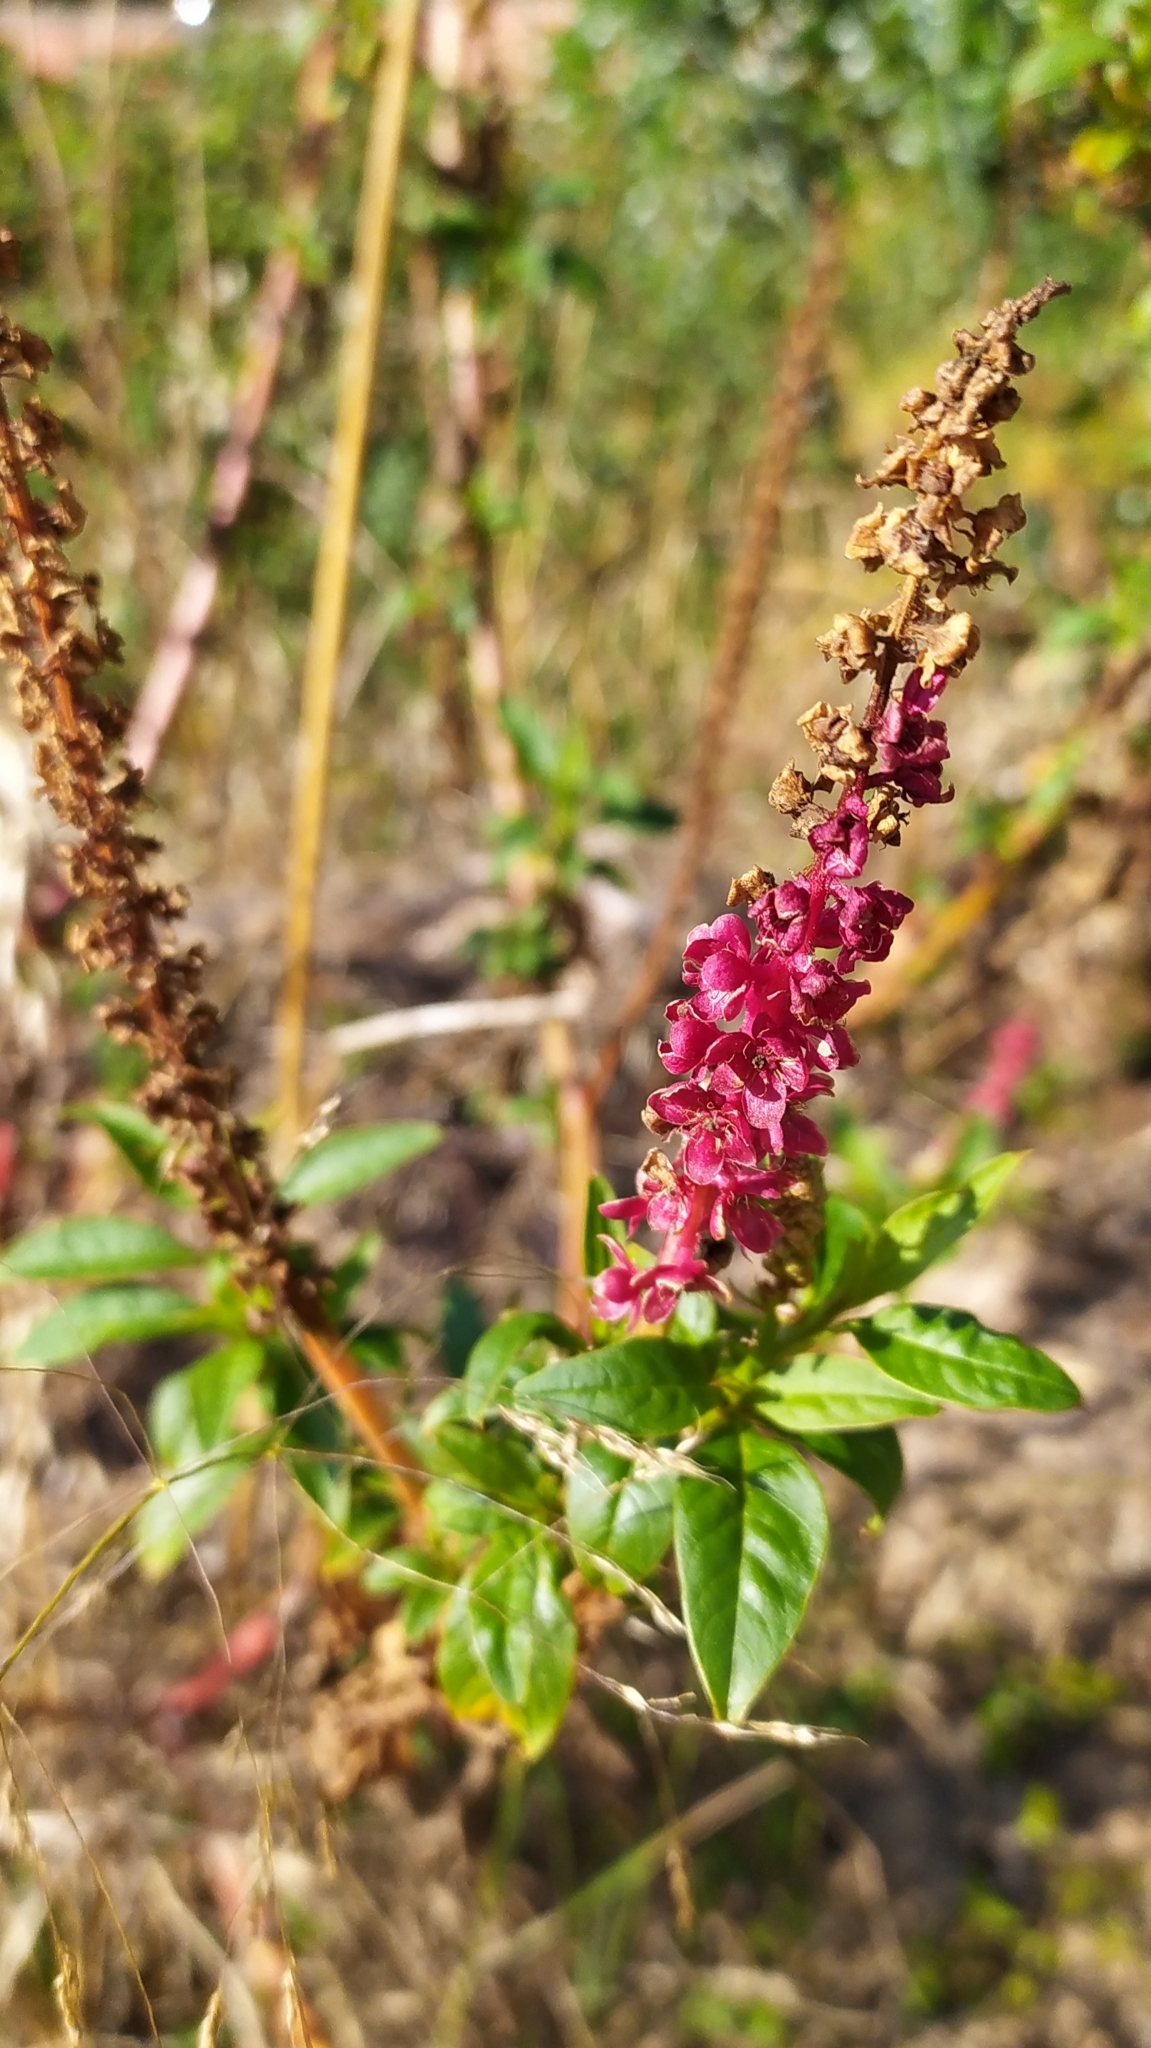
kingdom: Plantae
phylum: Tracheophyta
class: Magnoliopsida
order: Caryophyllales
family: Phytolaccaceae
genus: Phytolacca
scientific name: Phytolacca heterotepala
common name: Mexican pokeweed
